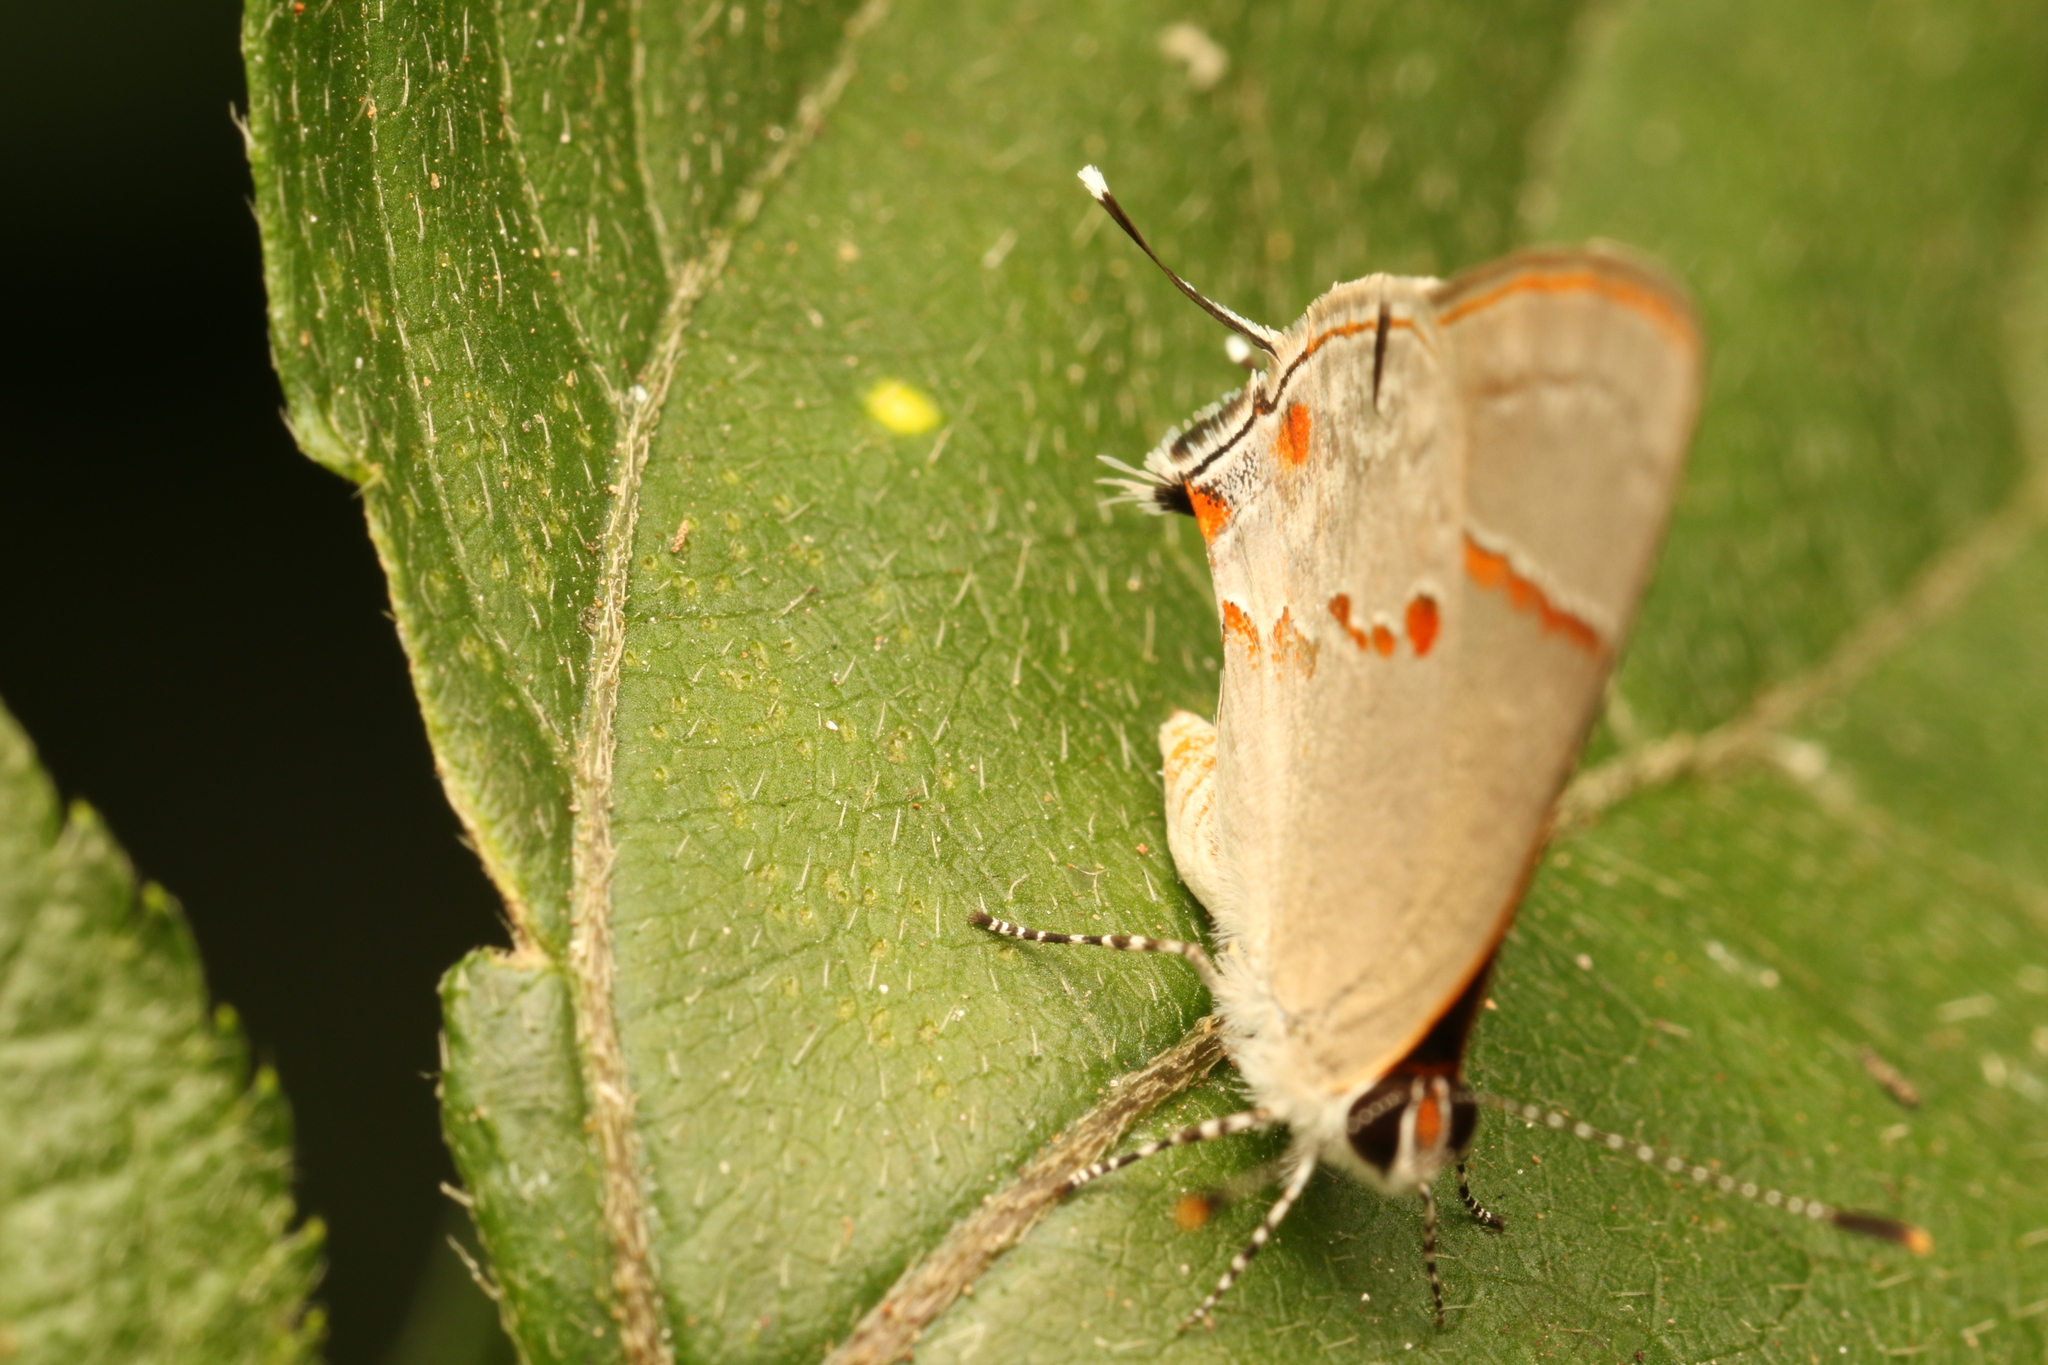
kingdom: Animalia
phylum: Arthropoda
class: Insecta
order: Lepidoptera
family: Lycaenidae
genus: Thecla
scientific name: Thecla azia
